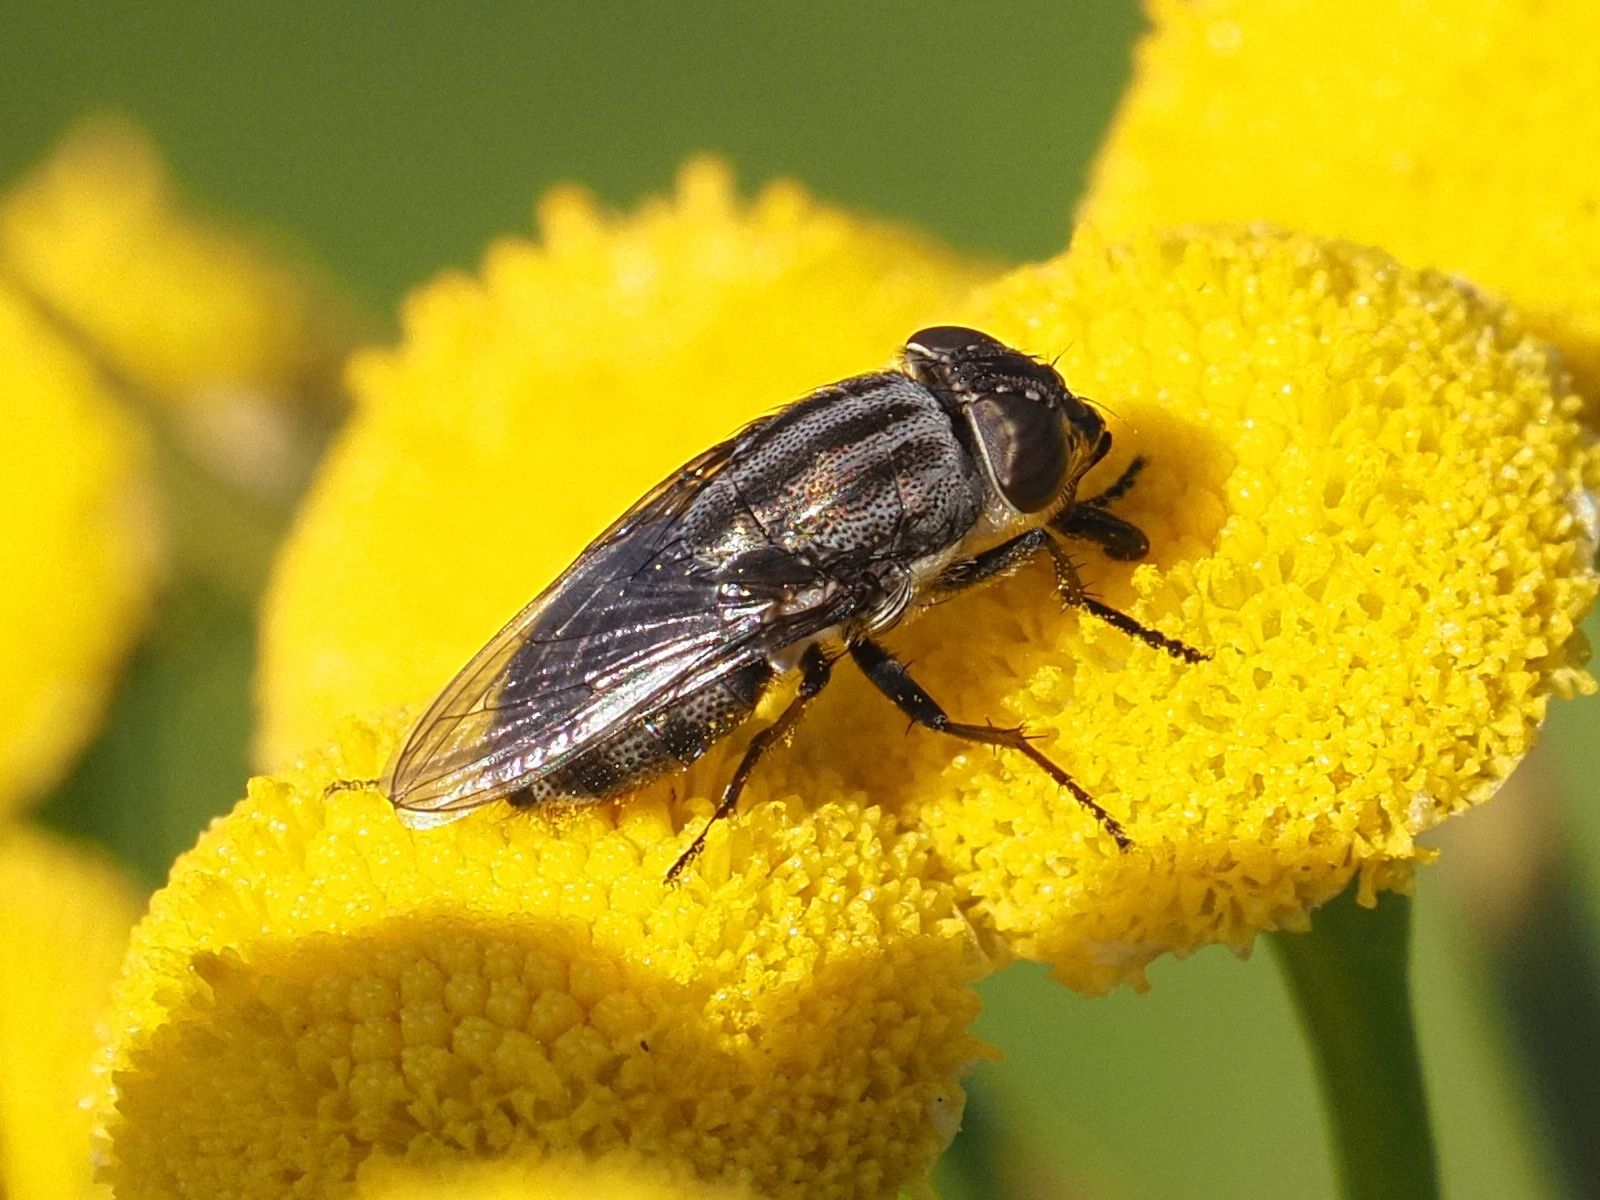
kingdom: Animalia
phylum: Arthropoda
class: Insecta
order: Diptera
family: Calliphoridae
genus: Stomorhina
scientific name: Stomorhina lunata
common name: Locust blowfly
